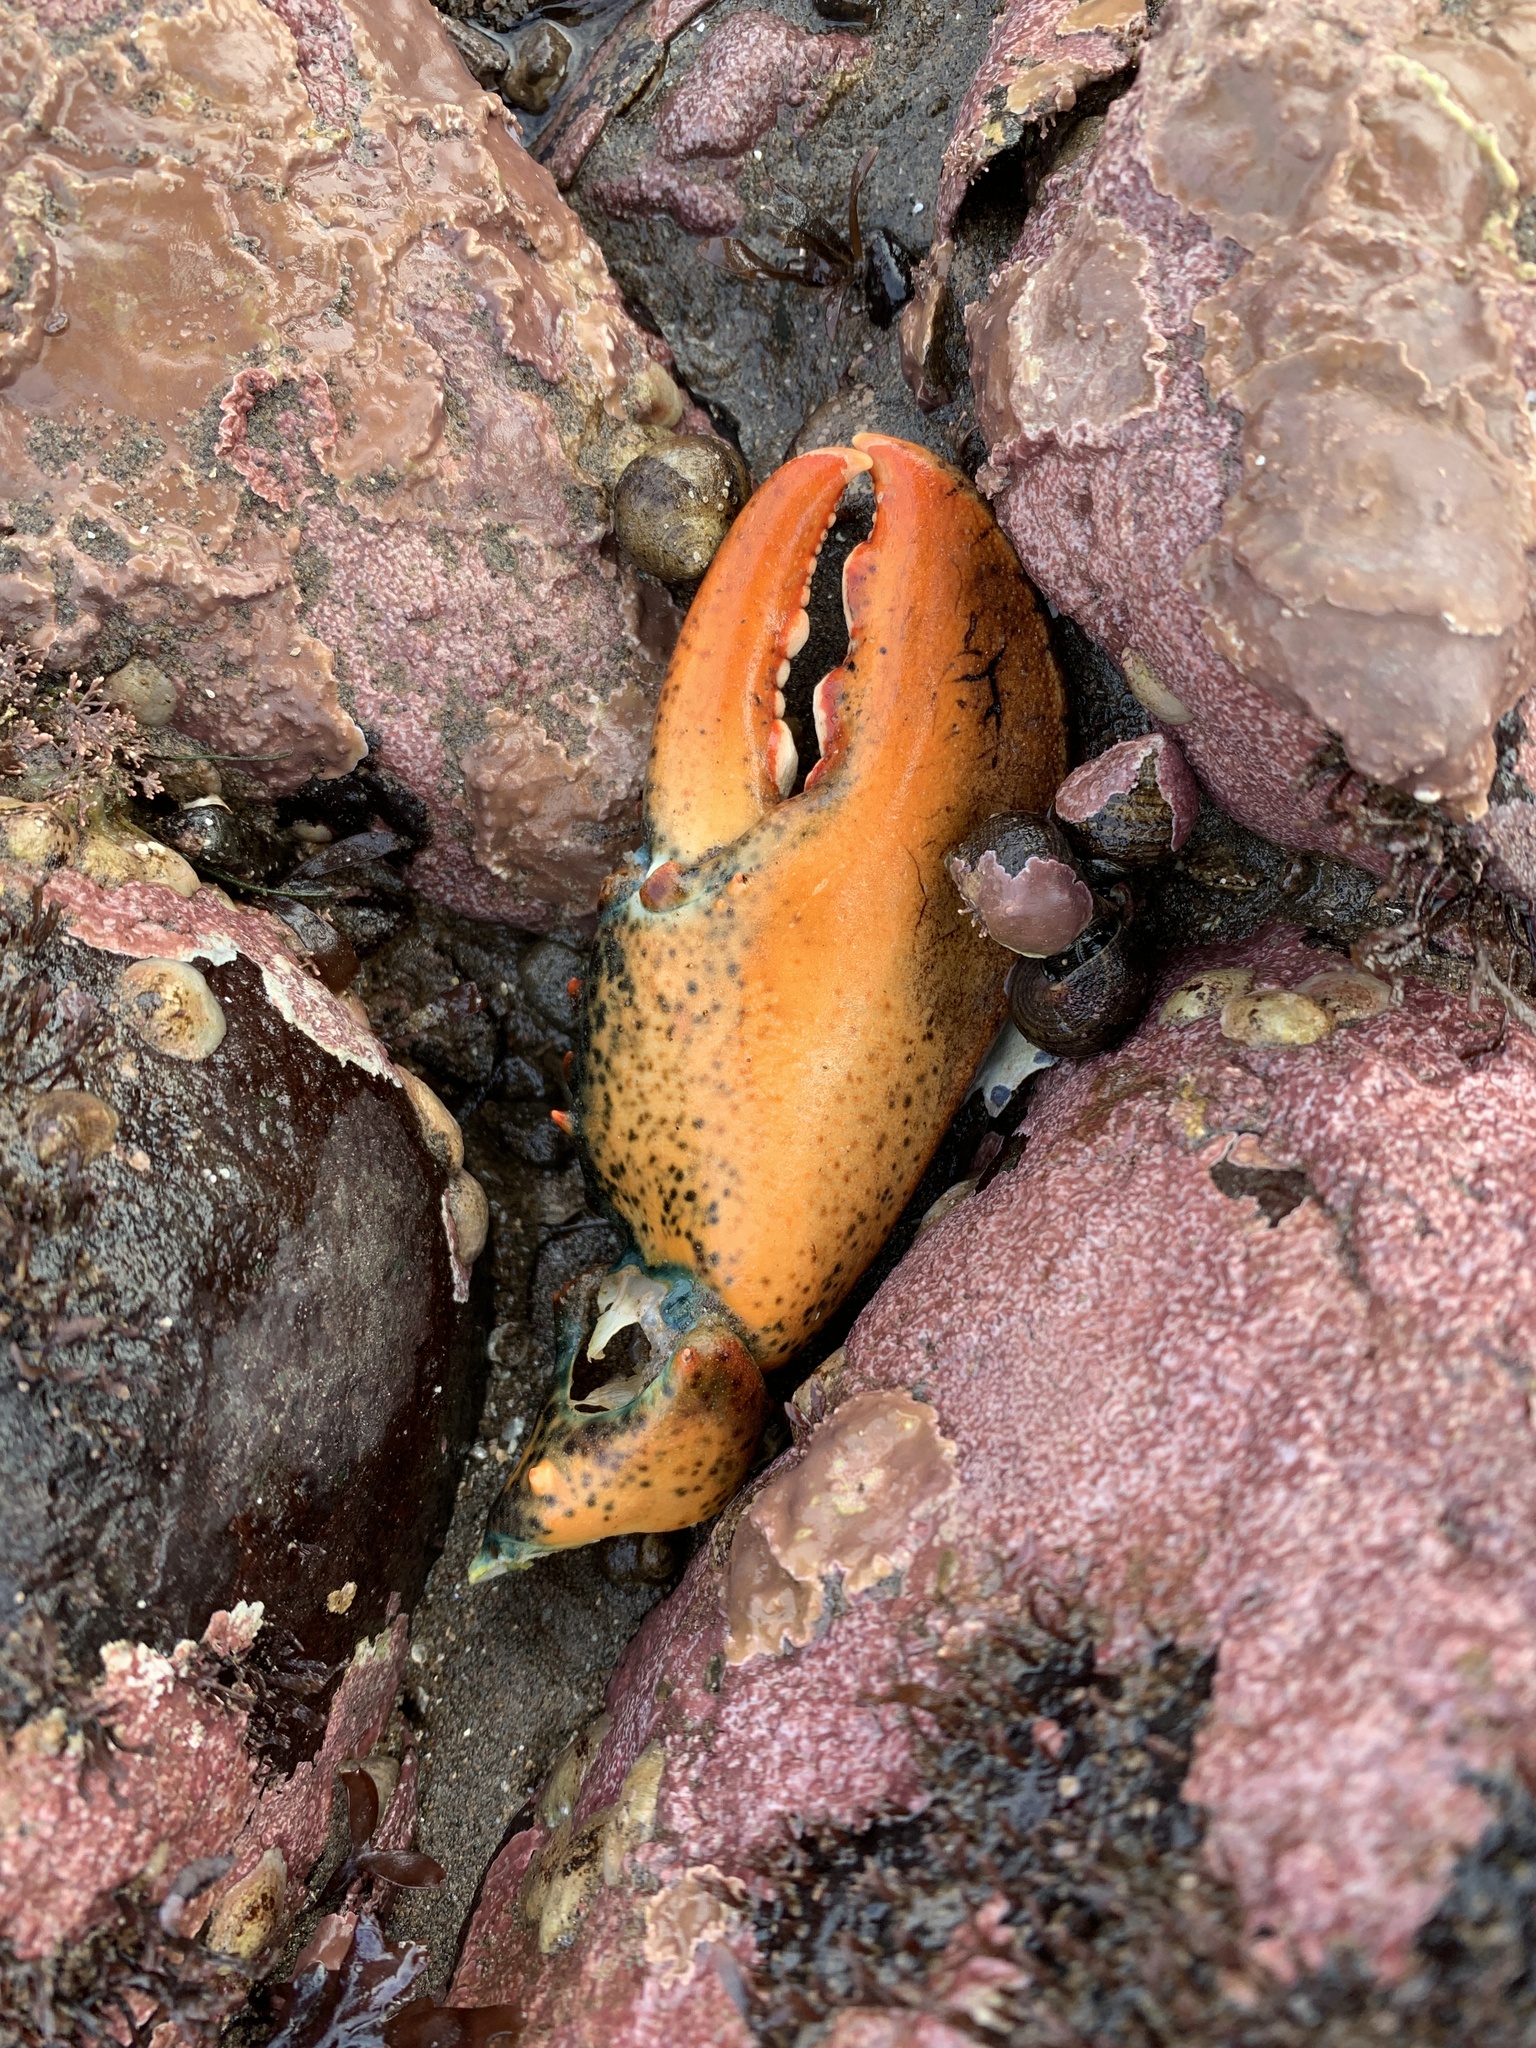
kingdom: Animalia
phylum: Arthropoda
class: Malacostraca
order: Decapoda
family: Nephropidae
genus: Homarus
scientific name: Homarus americanus
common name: American lobster
